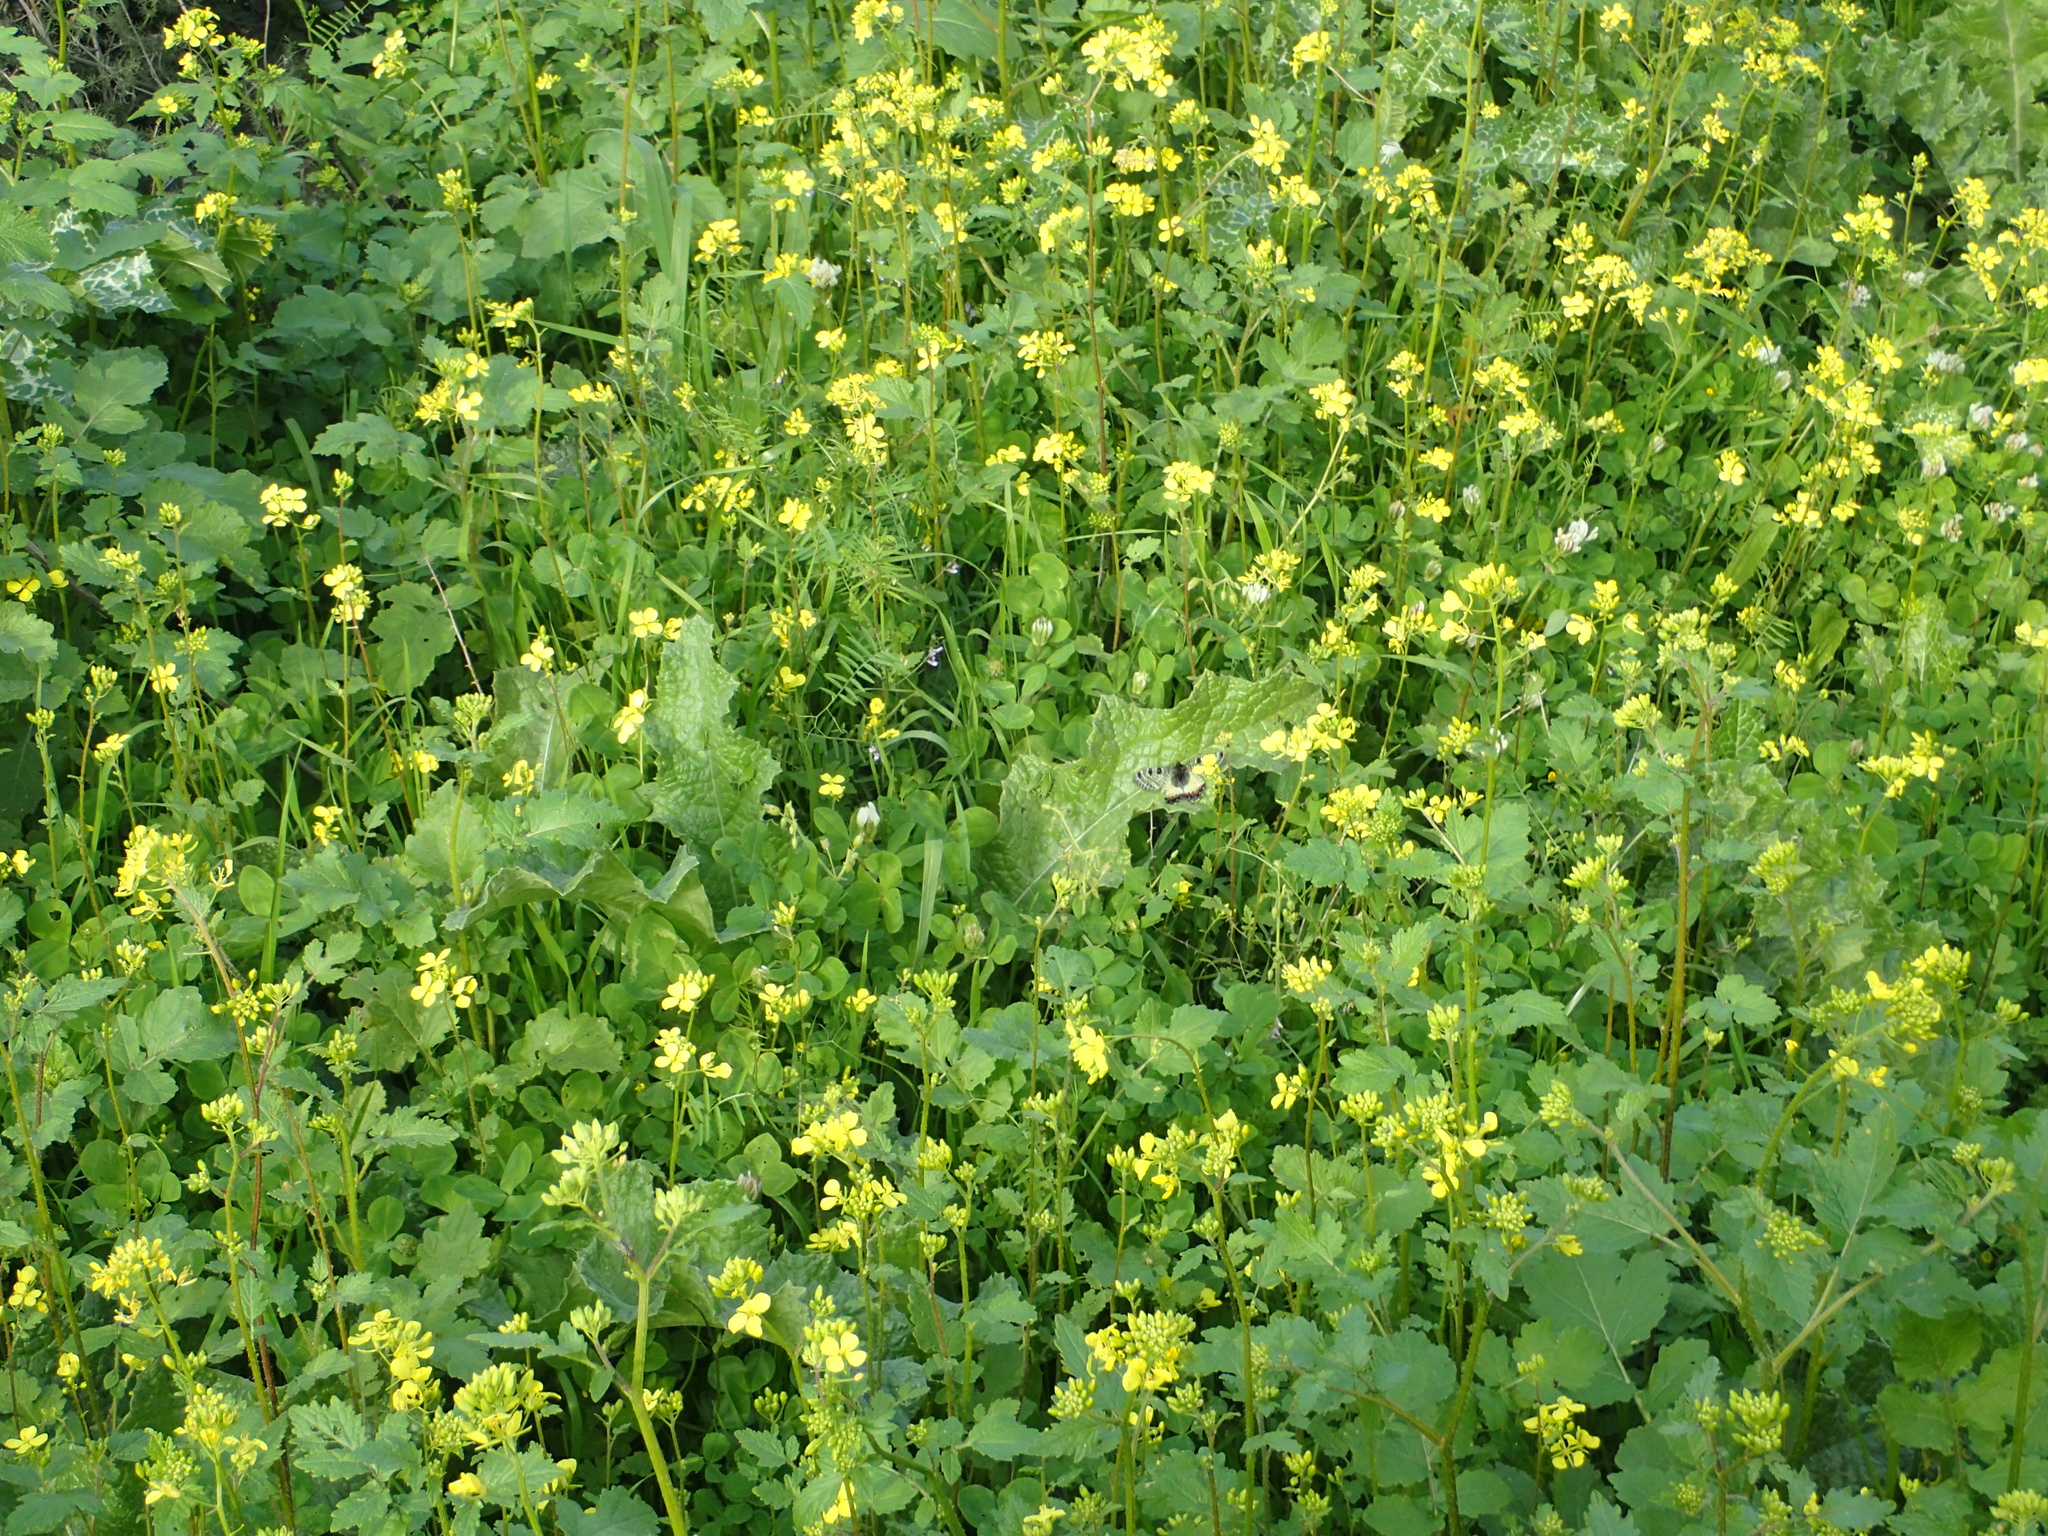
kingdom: Animalia
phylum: Arthropoda
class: Insecta
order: Lepidoptera
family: Papilionidae
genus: Archon
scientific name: Archon apollinus
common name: False apollo
